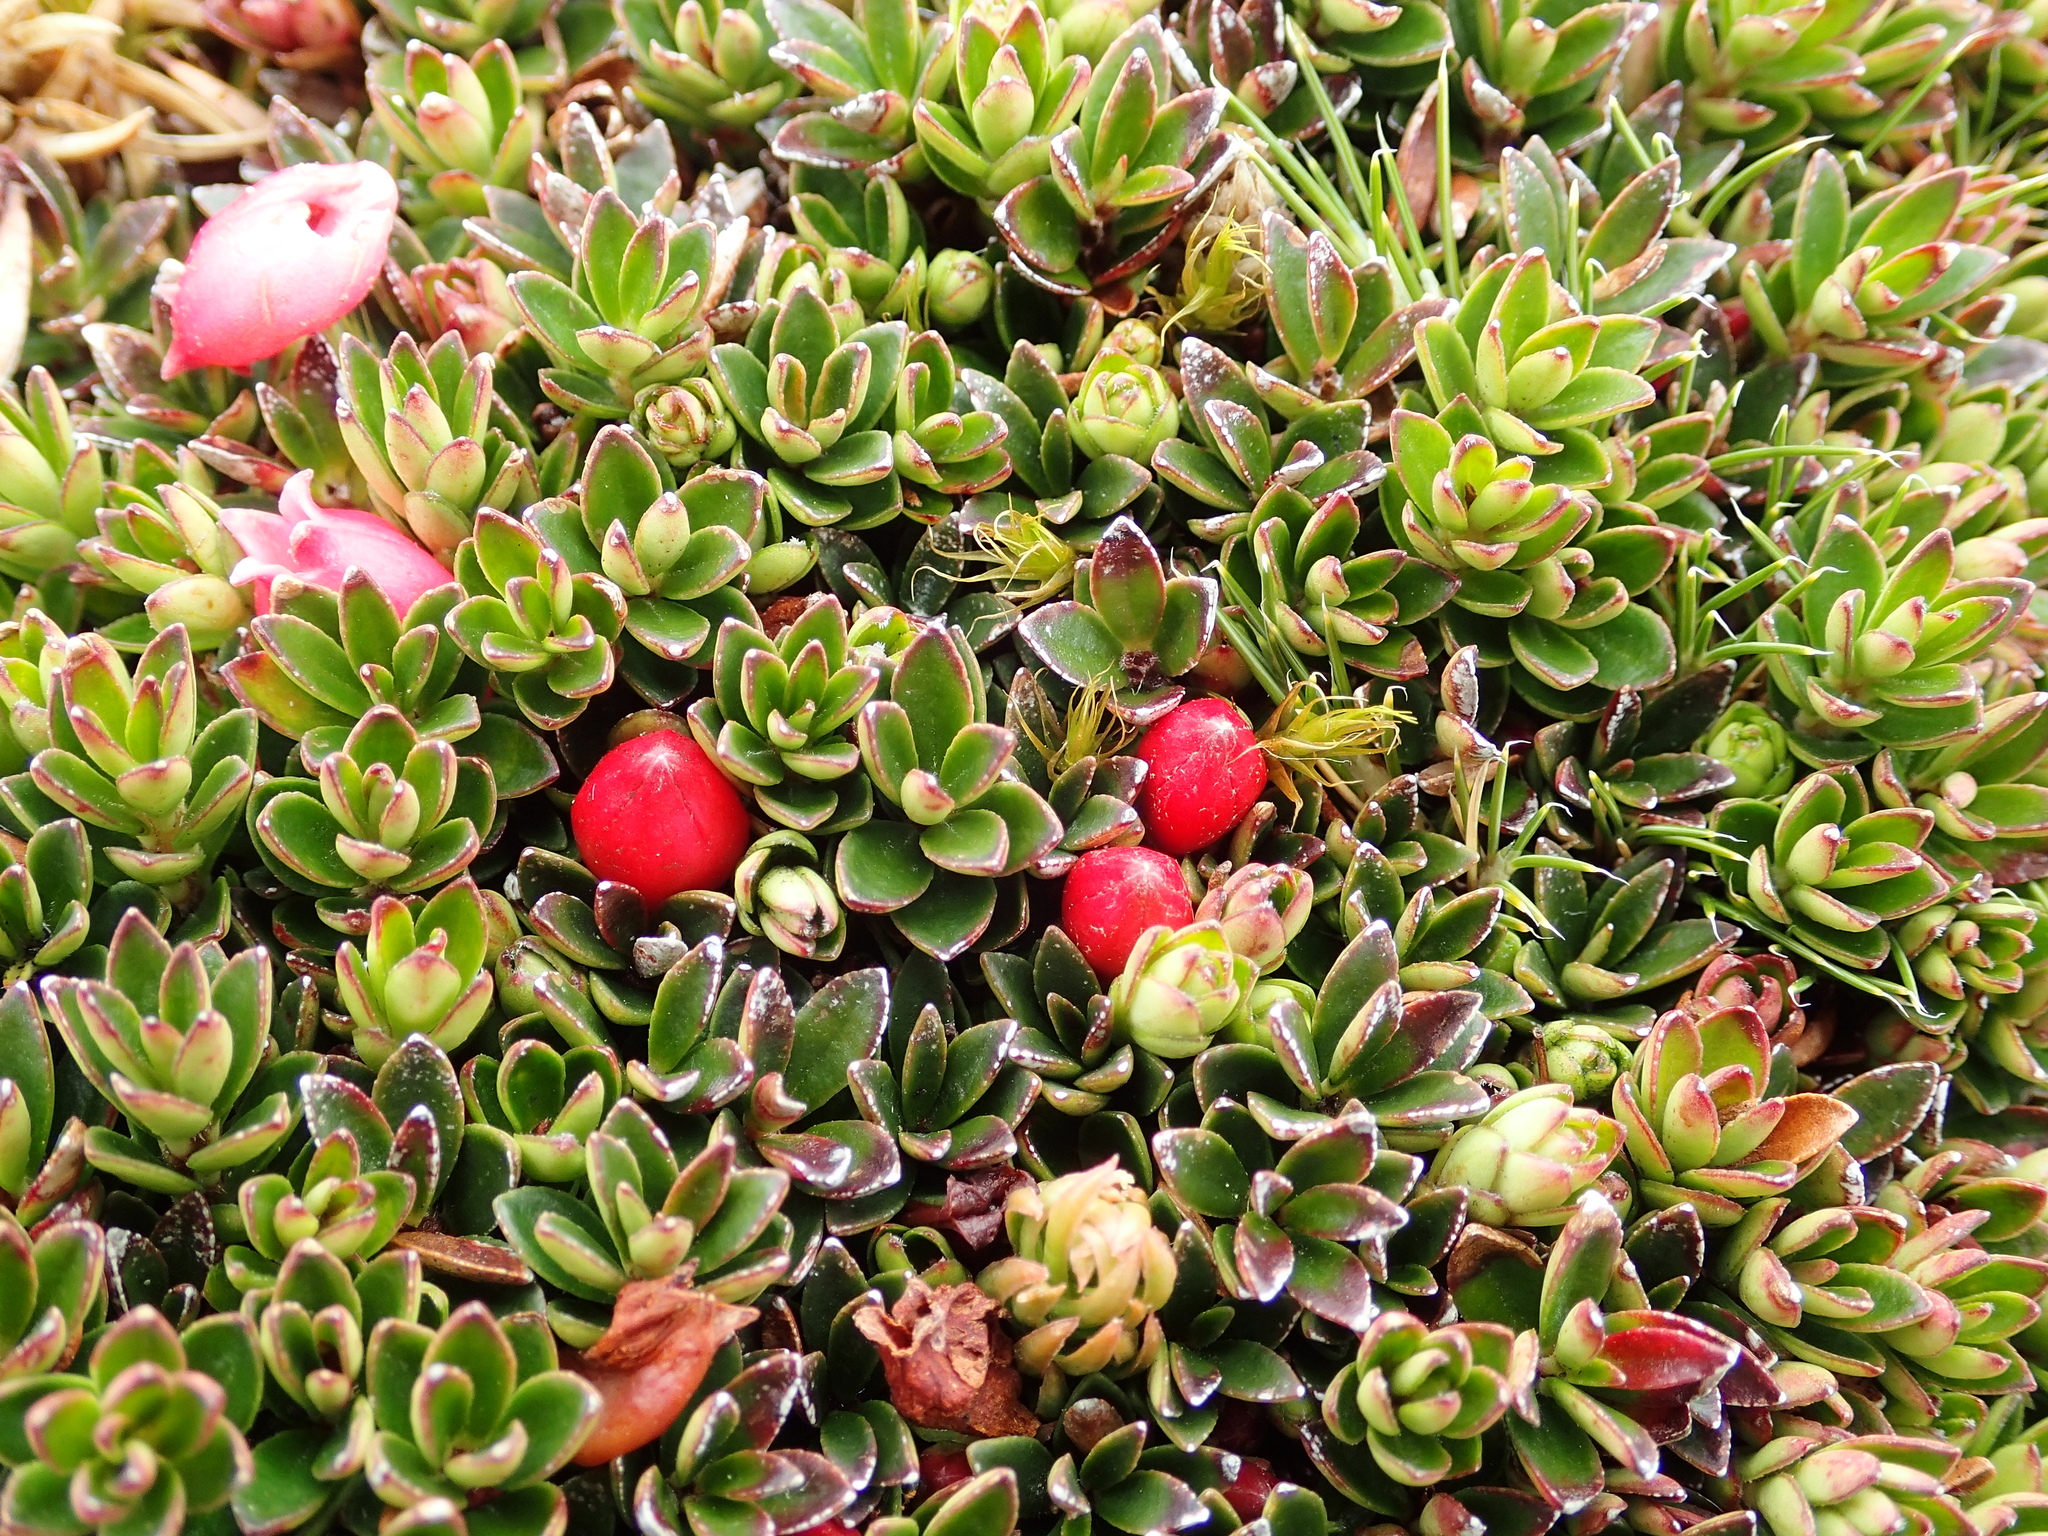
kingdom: Plantae
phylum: Tracheophyta
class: Magnoliopsida
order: Ericales
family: Ericaceae
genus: Disterigma
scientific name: Disterigma empetrifolium
